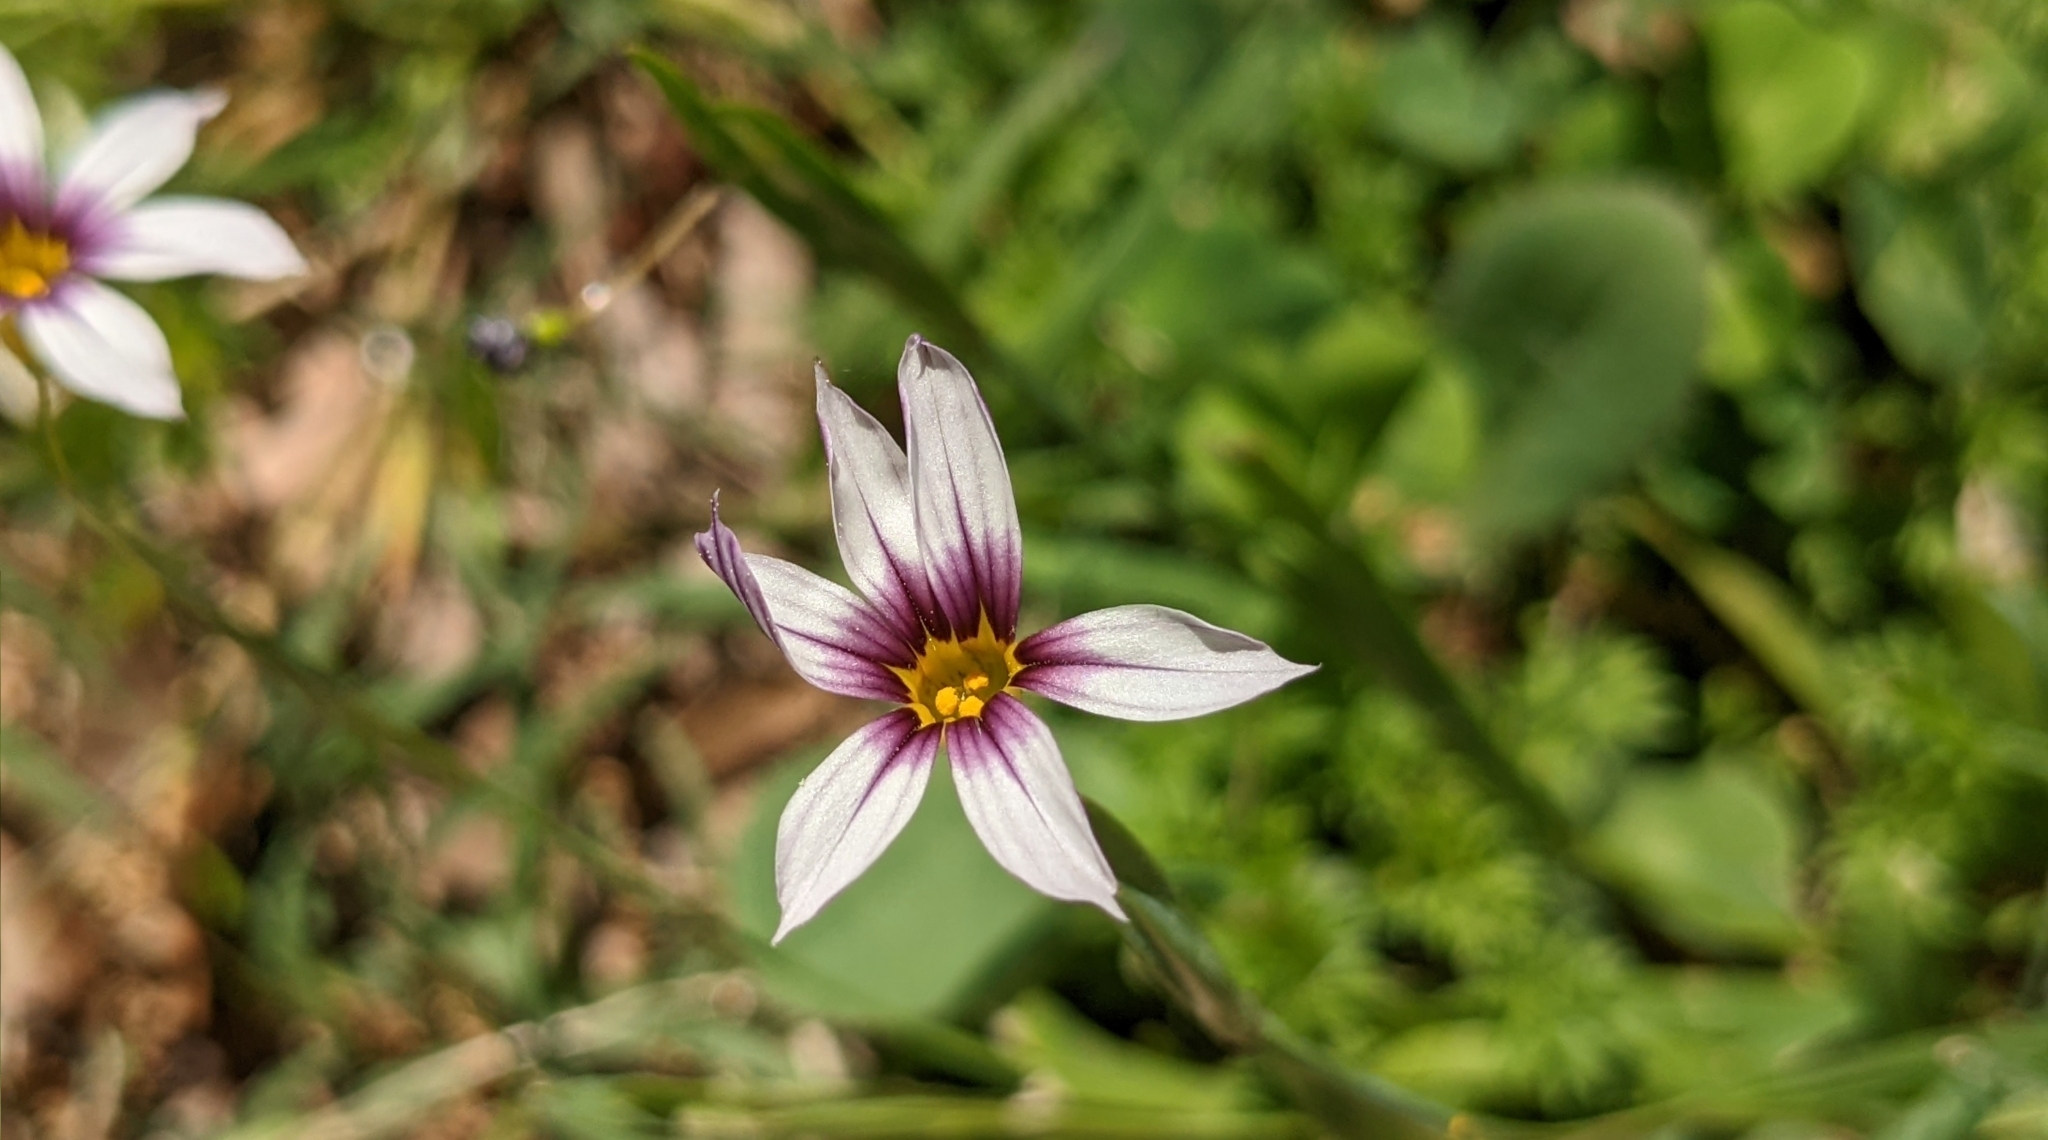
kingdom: Plantae
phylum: Tracheophyta
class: Liliopsida
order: Asparagales
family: Iridaceae
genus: Sisyrinchium
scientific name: Sisyrinchium micranthum
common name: Bermuda pigroot
